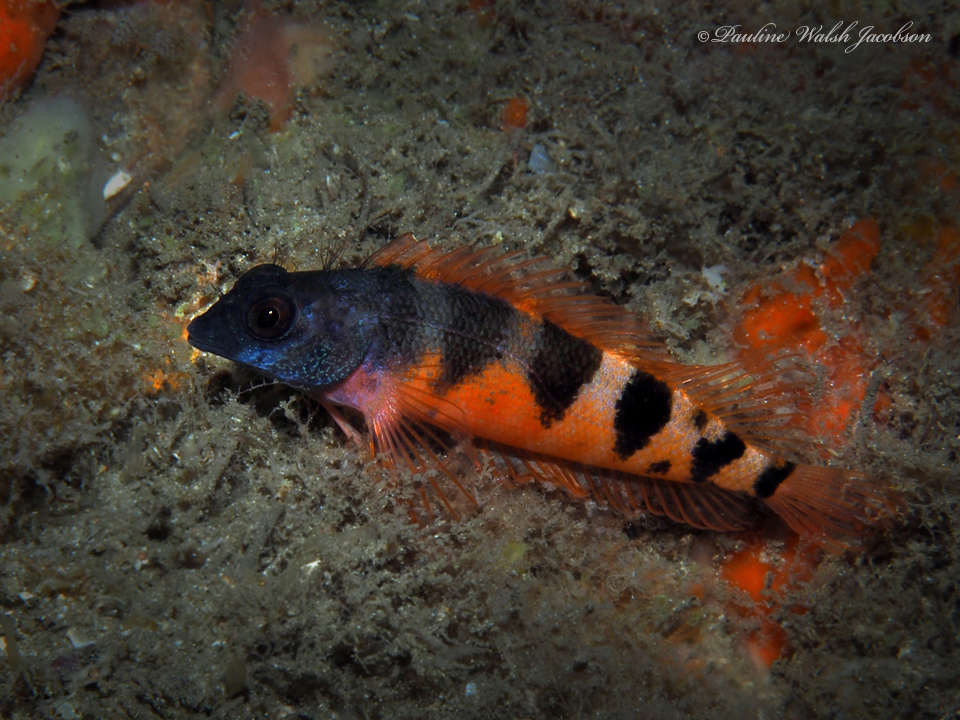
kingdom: Animalia
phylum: Chordata
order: Perciformes
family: Labrisomidae
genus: Malacoctenus
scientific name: Malacoctenus triangulatus
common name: Saddled blenny
